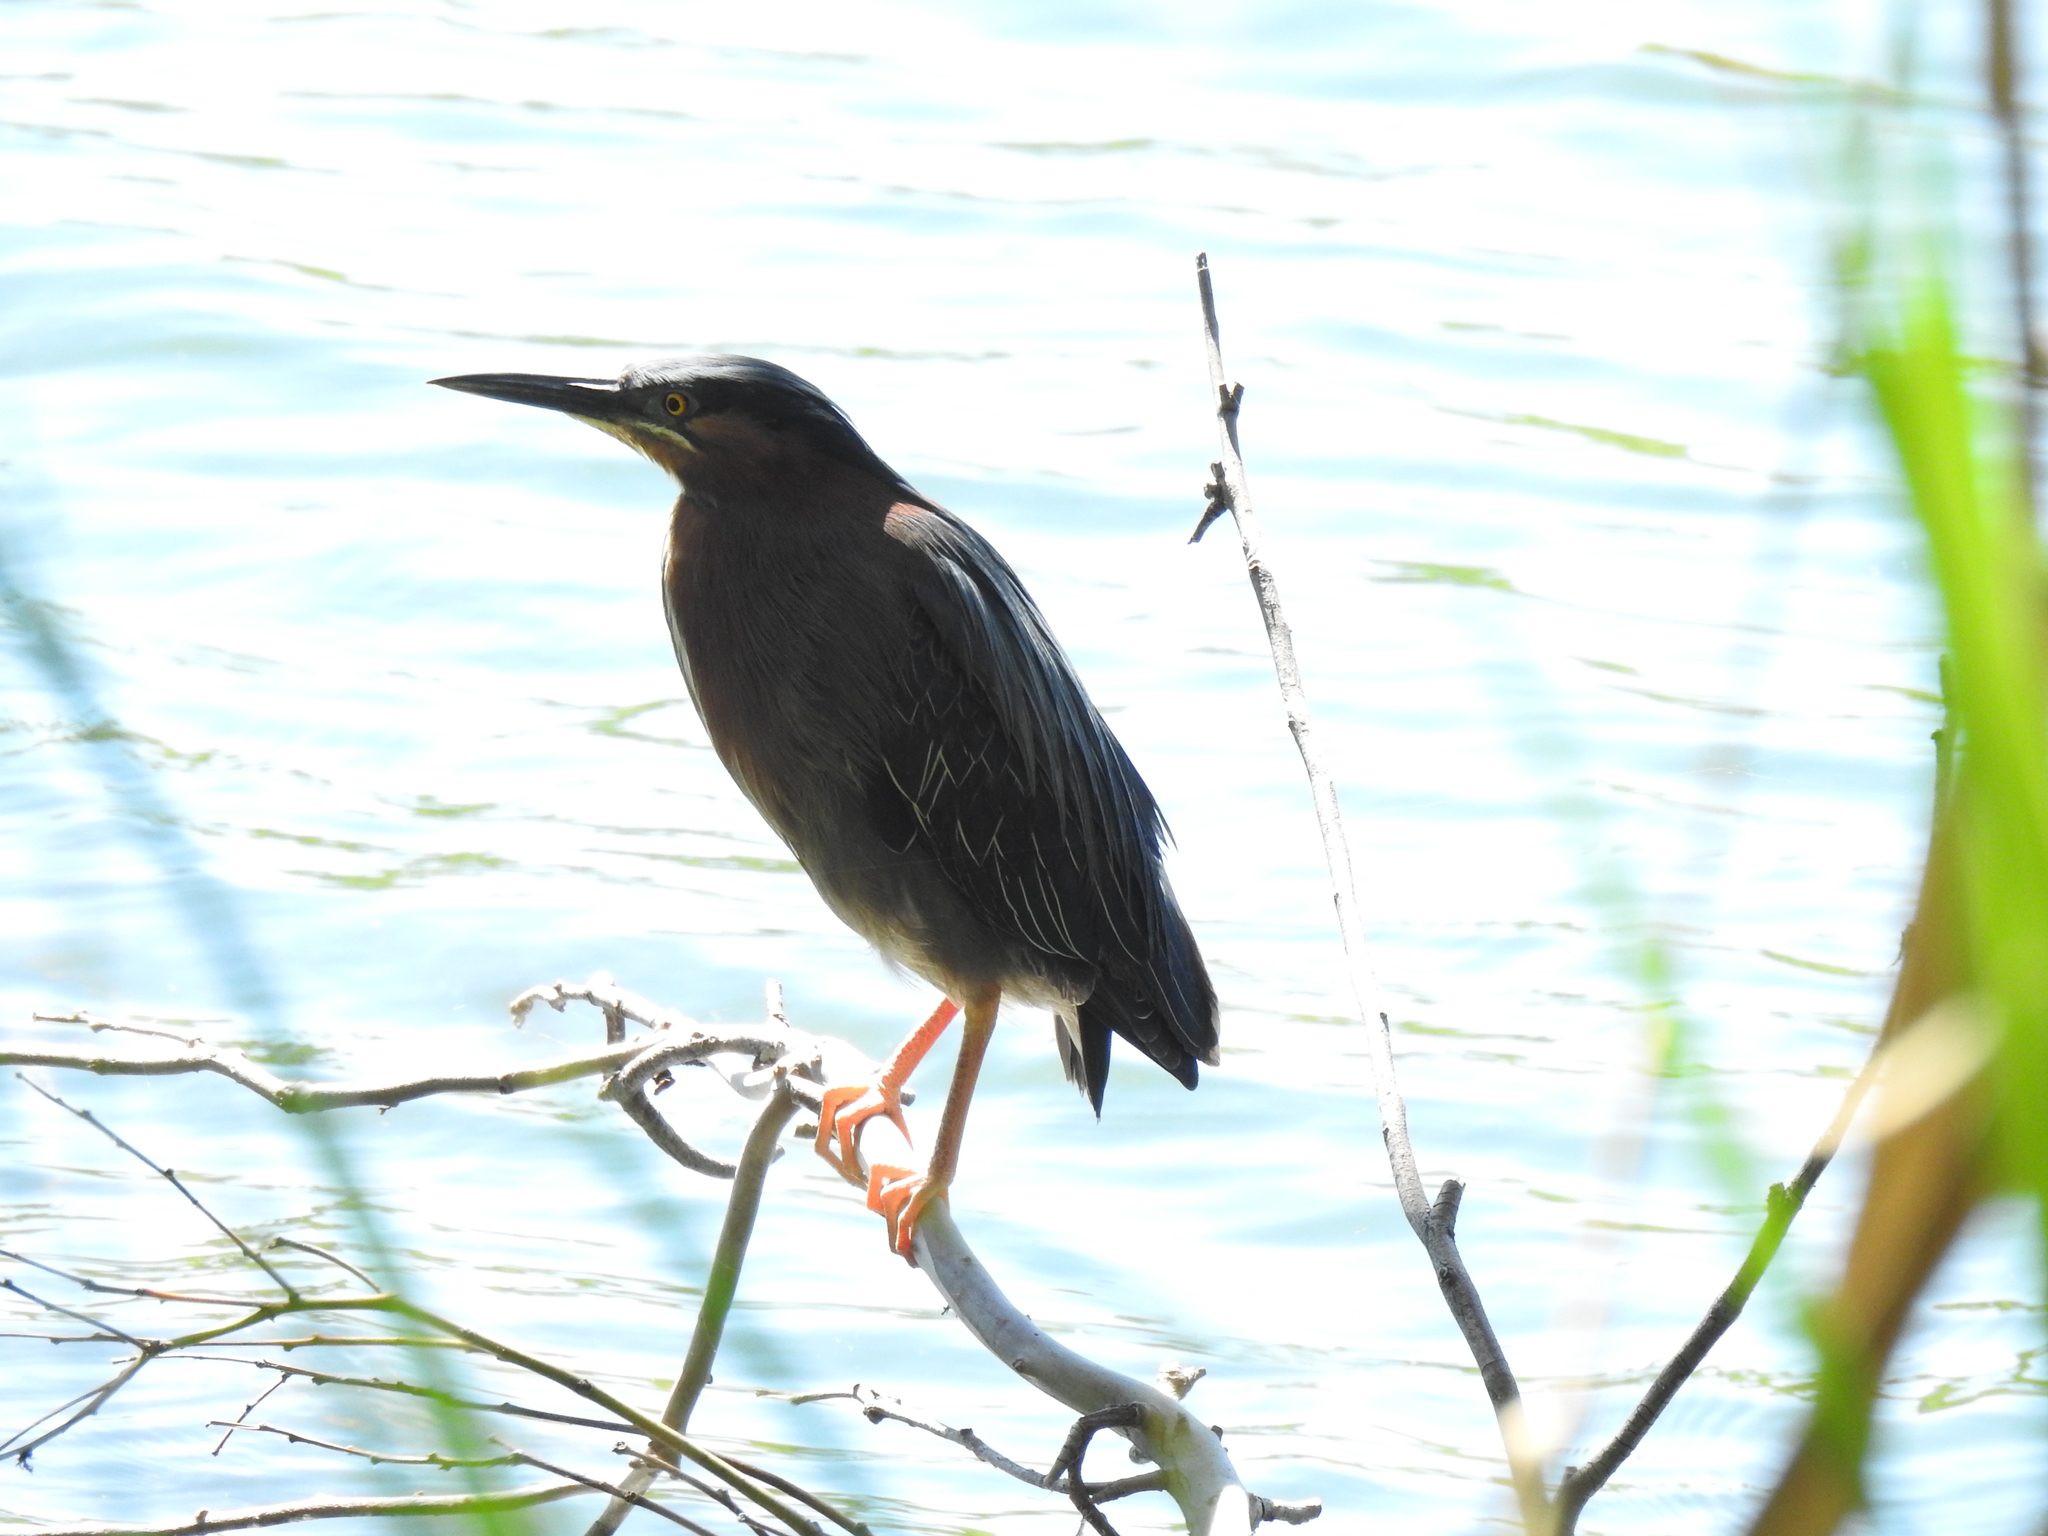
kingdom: Animalia
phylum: Chordata
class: Aves
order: Pelecaniformes
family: Ardeidae
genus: Butorides
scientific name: Butorides virescens
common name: Green heron
